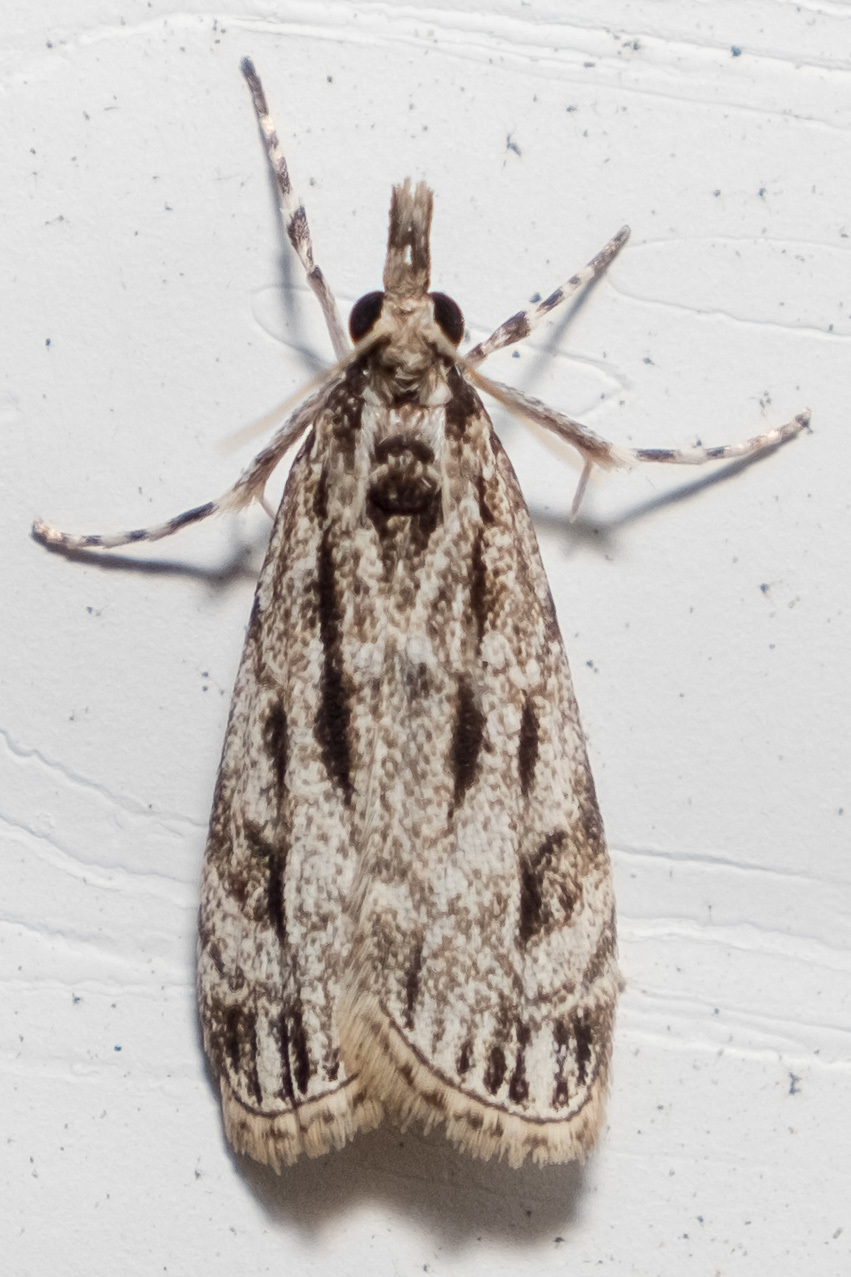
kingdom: Animalia
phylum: Arthropoda
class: Insecta
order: Lepidoptera
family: Crambidae
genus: Eudonia
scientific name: Eudonia strigalis
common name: Striped eudonia moth
